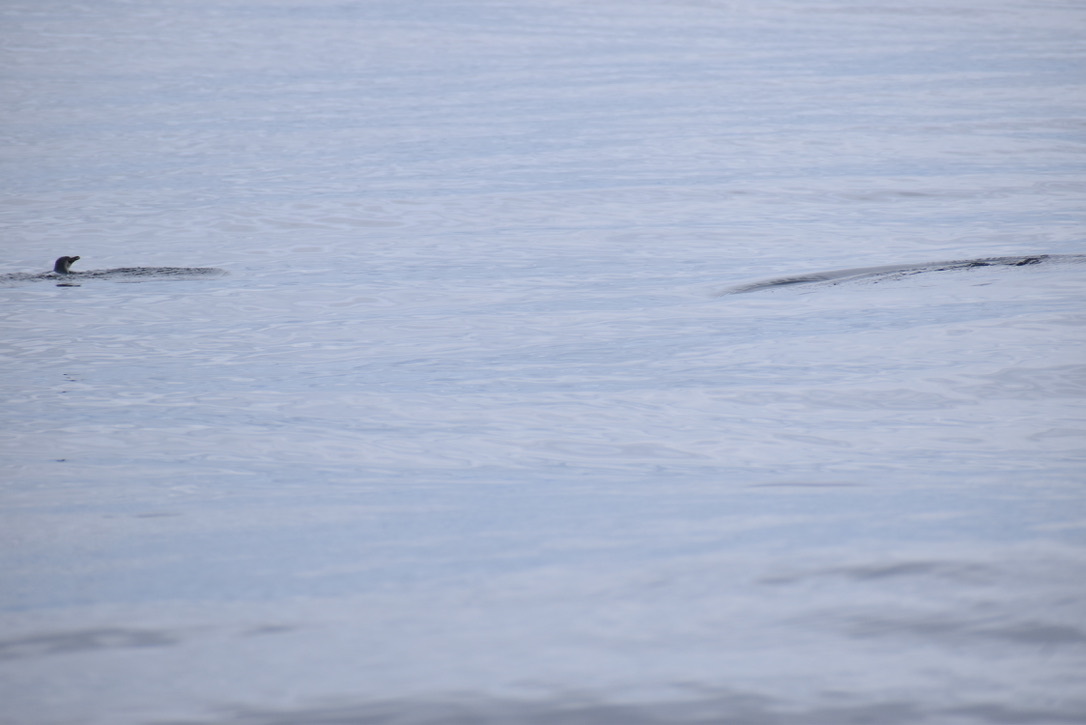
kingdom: Animalia
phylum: Chordata
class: Aves
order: Sphenisciformes
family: Spheniscidae
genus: Eudyptula
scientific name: Eudyptula minor
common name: Little penguin
